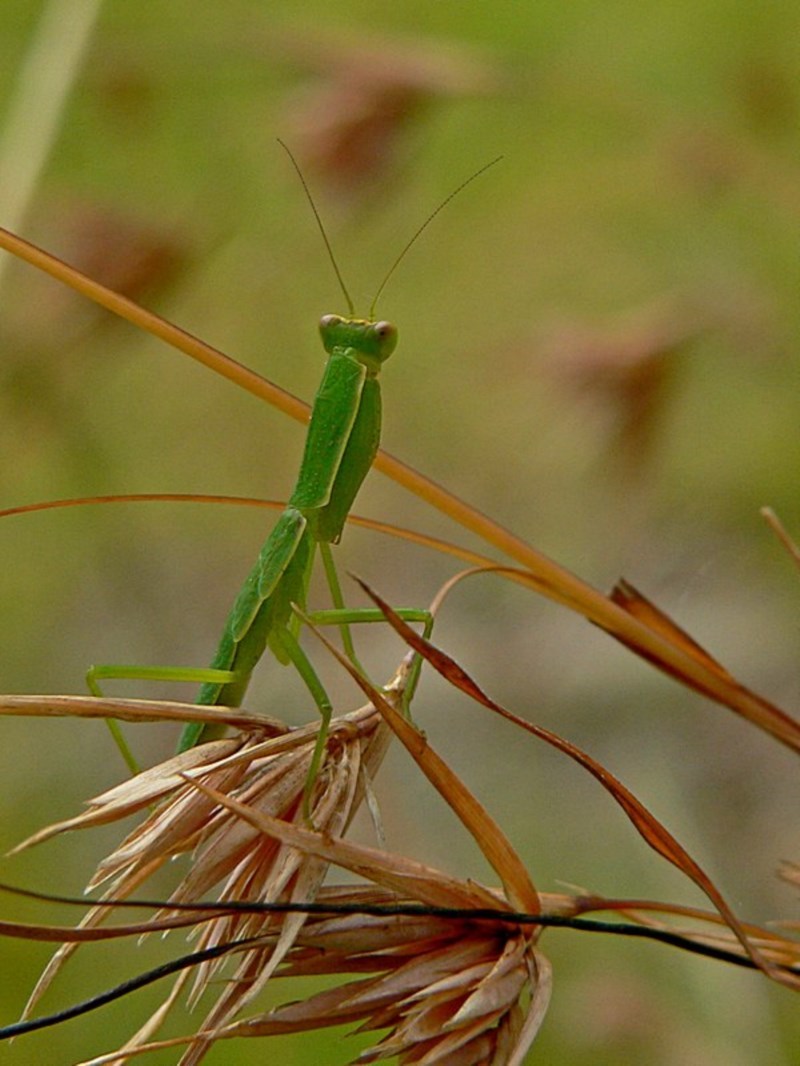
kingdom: Animalia
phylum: Arthropoda
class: Insecta
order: Mantodea
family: Mantidae
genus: Orthodera
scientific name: Orthodera ministralis
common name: Mantis
